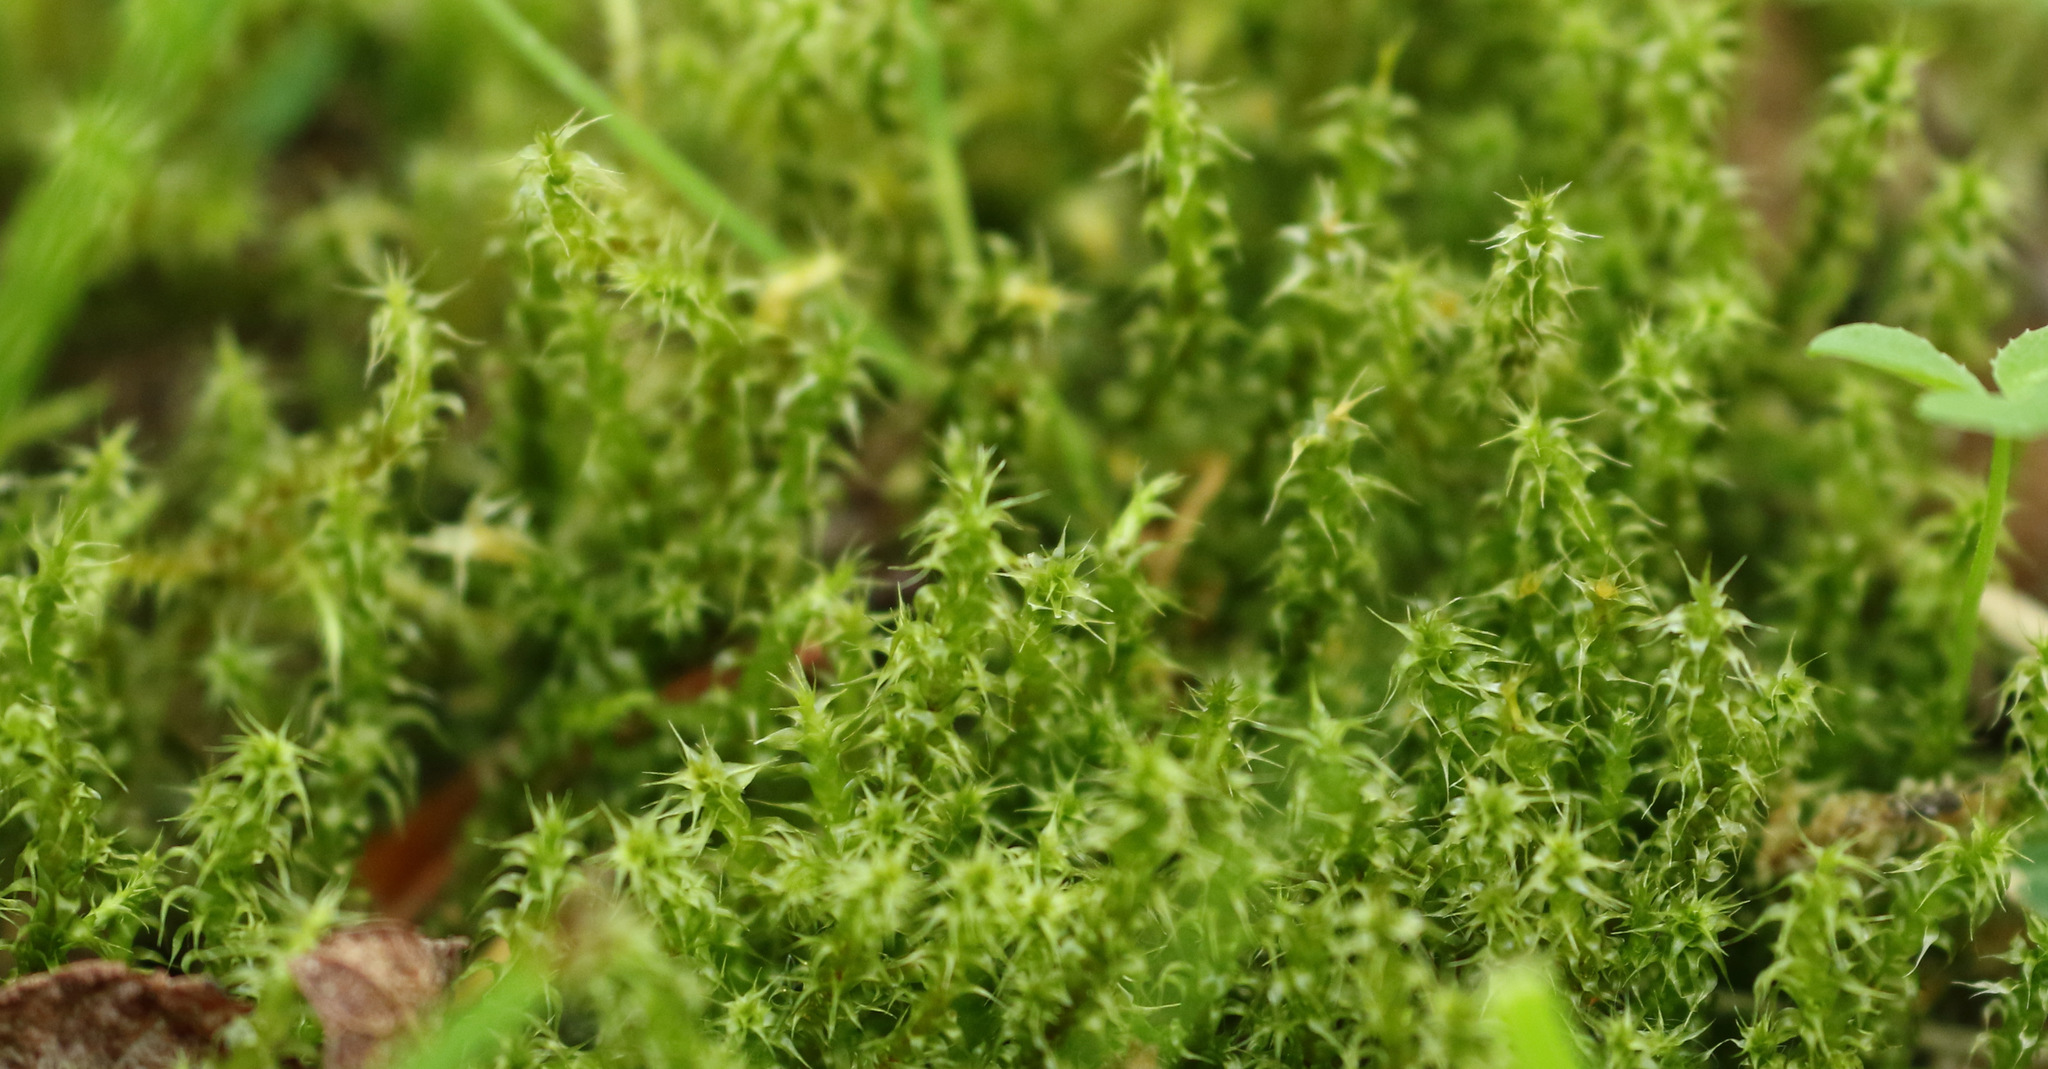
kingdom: Plantae
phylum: Bryophyta
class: Bryopsida
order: Hypnales
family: Hylocomiaceae
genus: Rhytidiadelphus
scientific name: Rhytidiadelphus squarrosus
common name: Springy turf-moss
